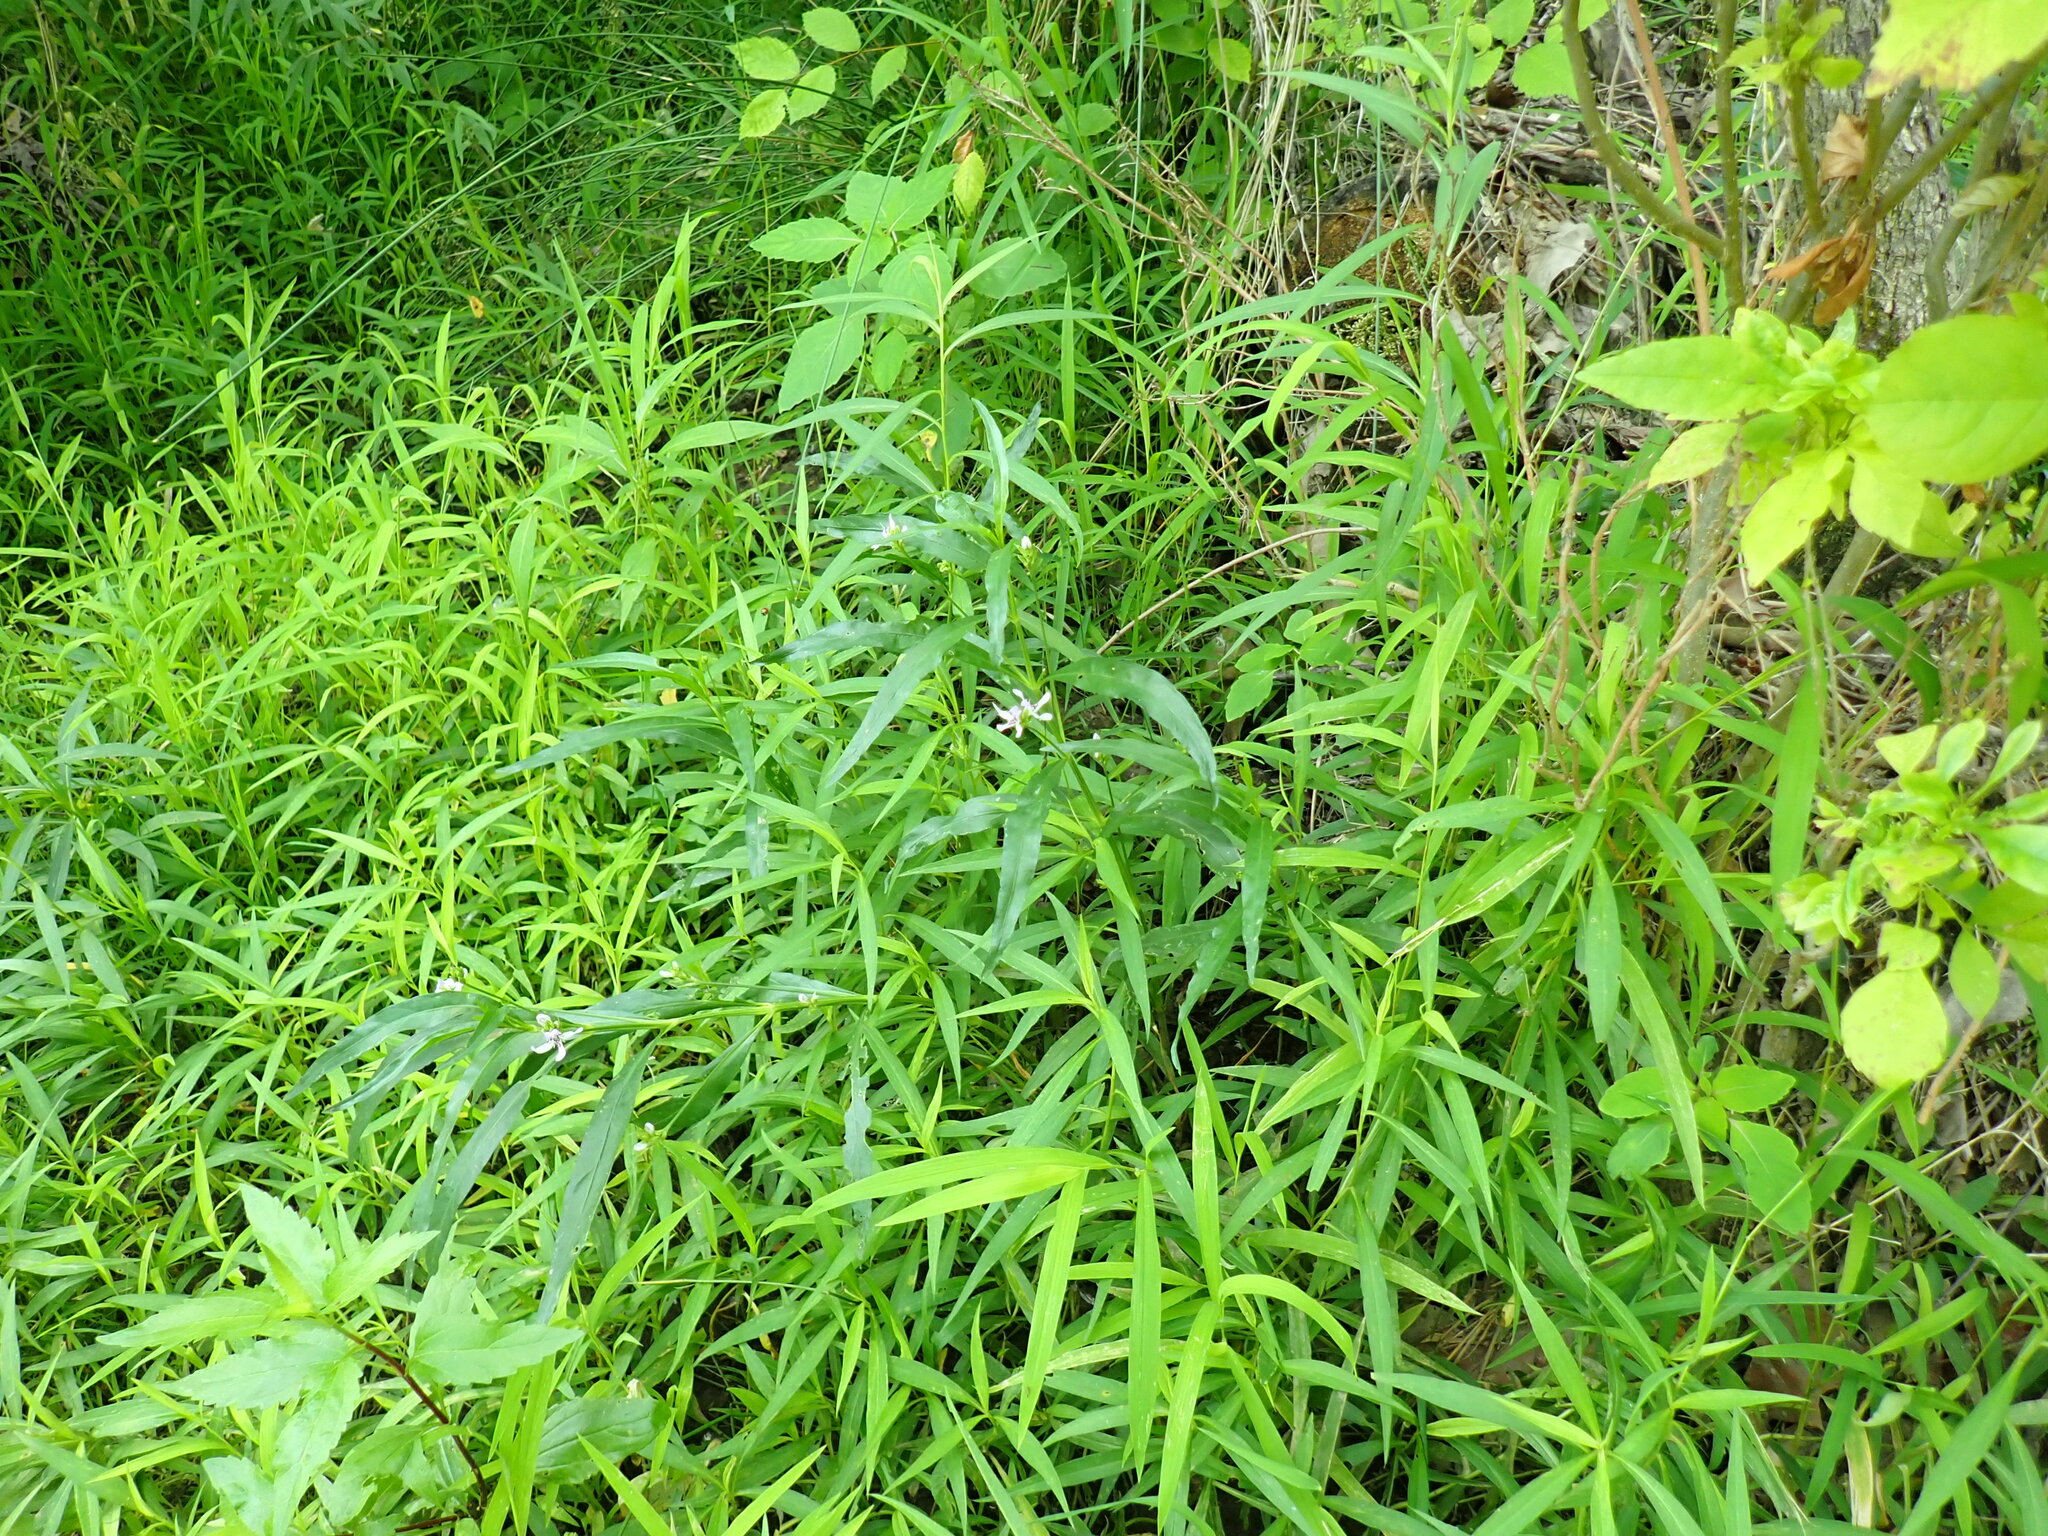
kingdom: Plantae
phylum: Tracheophyta
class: Magnoliopsida
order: Lamiales
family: Acanthaceae
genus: Dianthera
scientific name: Dianthera americana
